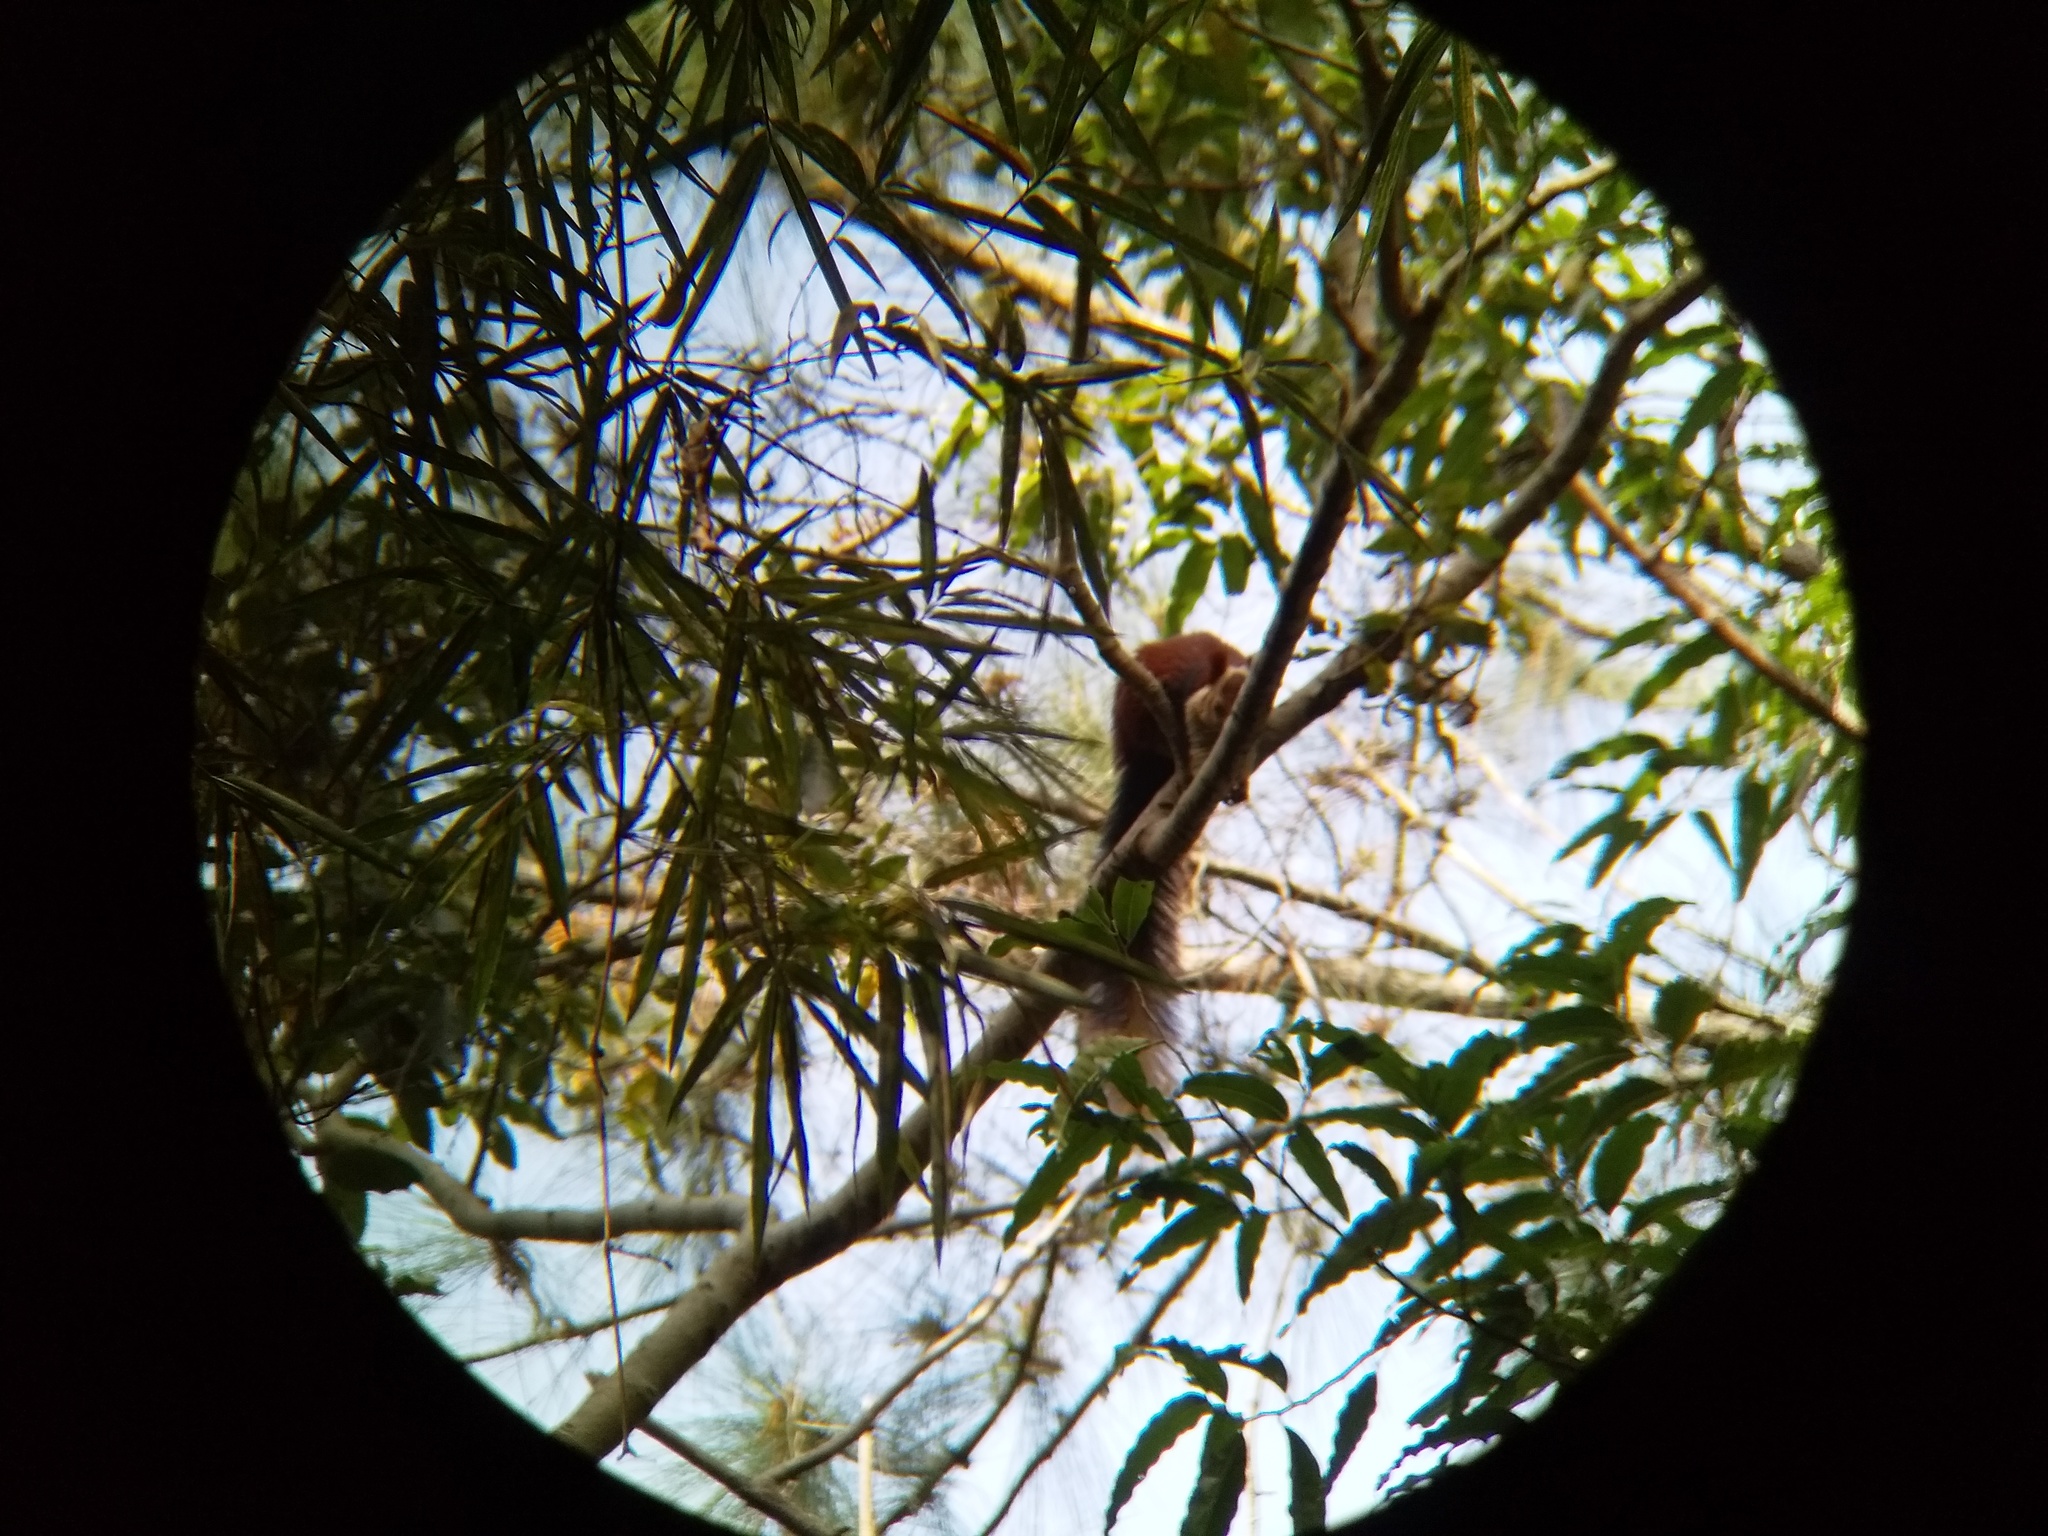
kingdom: Animalia
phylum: Chordata
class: Mammalia
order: Rodentia
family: Sciuridae
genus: Ratufa
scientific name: Ratufa indica
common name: Indian giant squirrel
